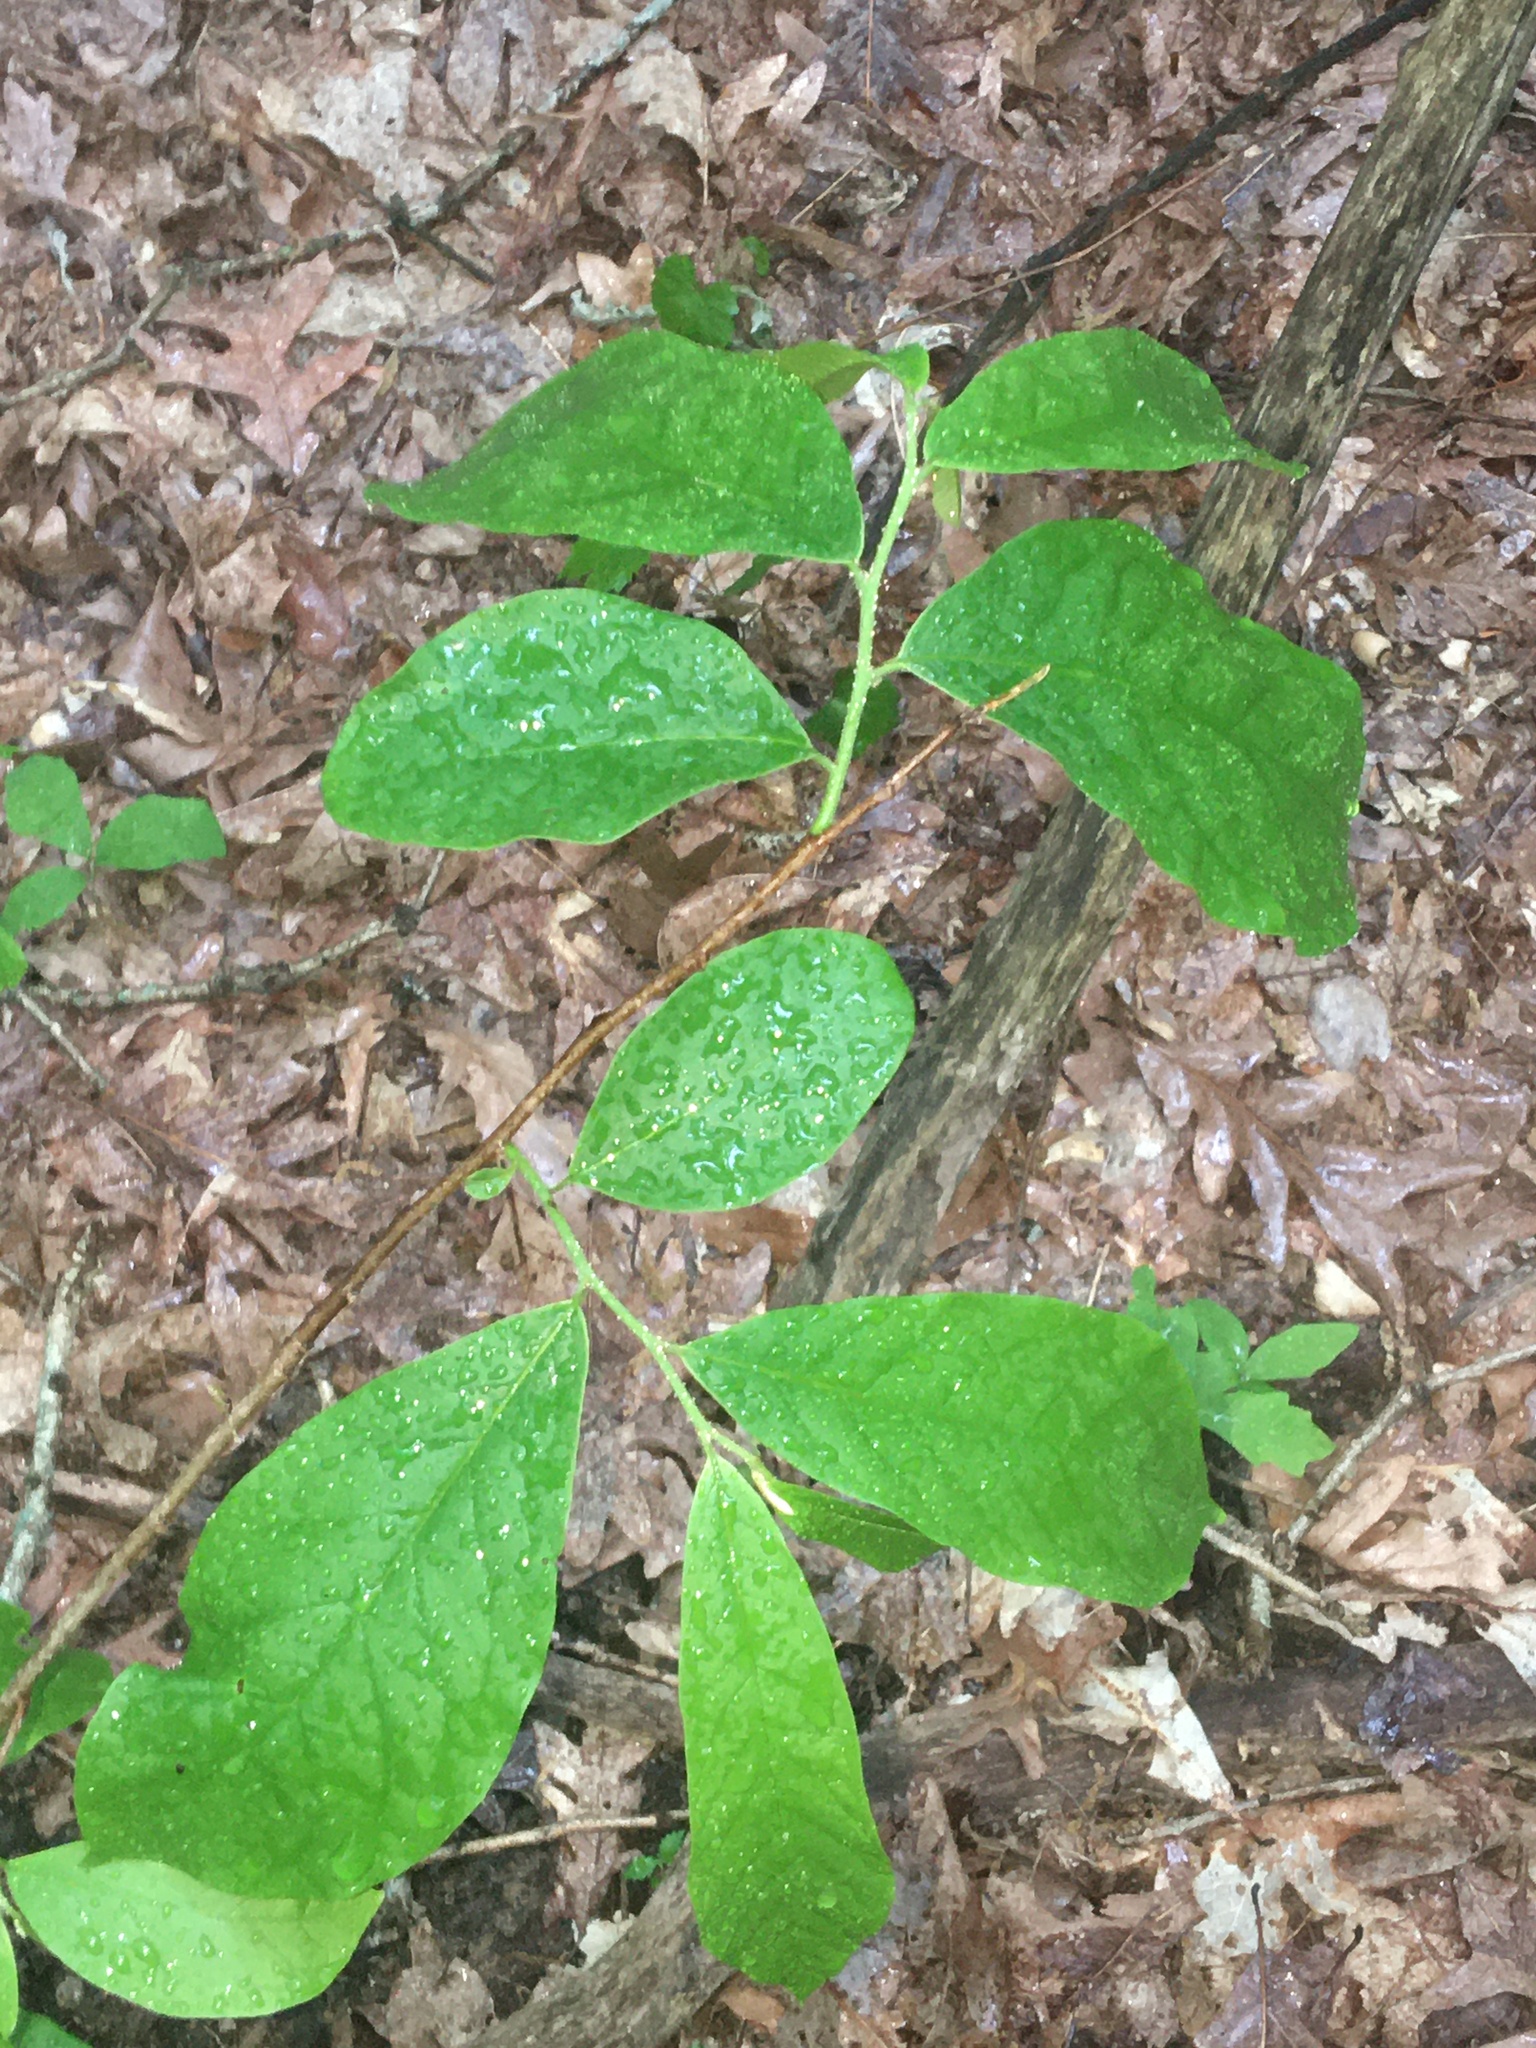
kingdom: Plantae
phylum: Tracheophyta
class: Magnoliopsida
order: Magnoliales
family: Annonaceae
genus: Asimina
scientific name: Asimina triloba
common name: Dog-banana
